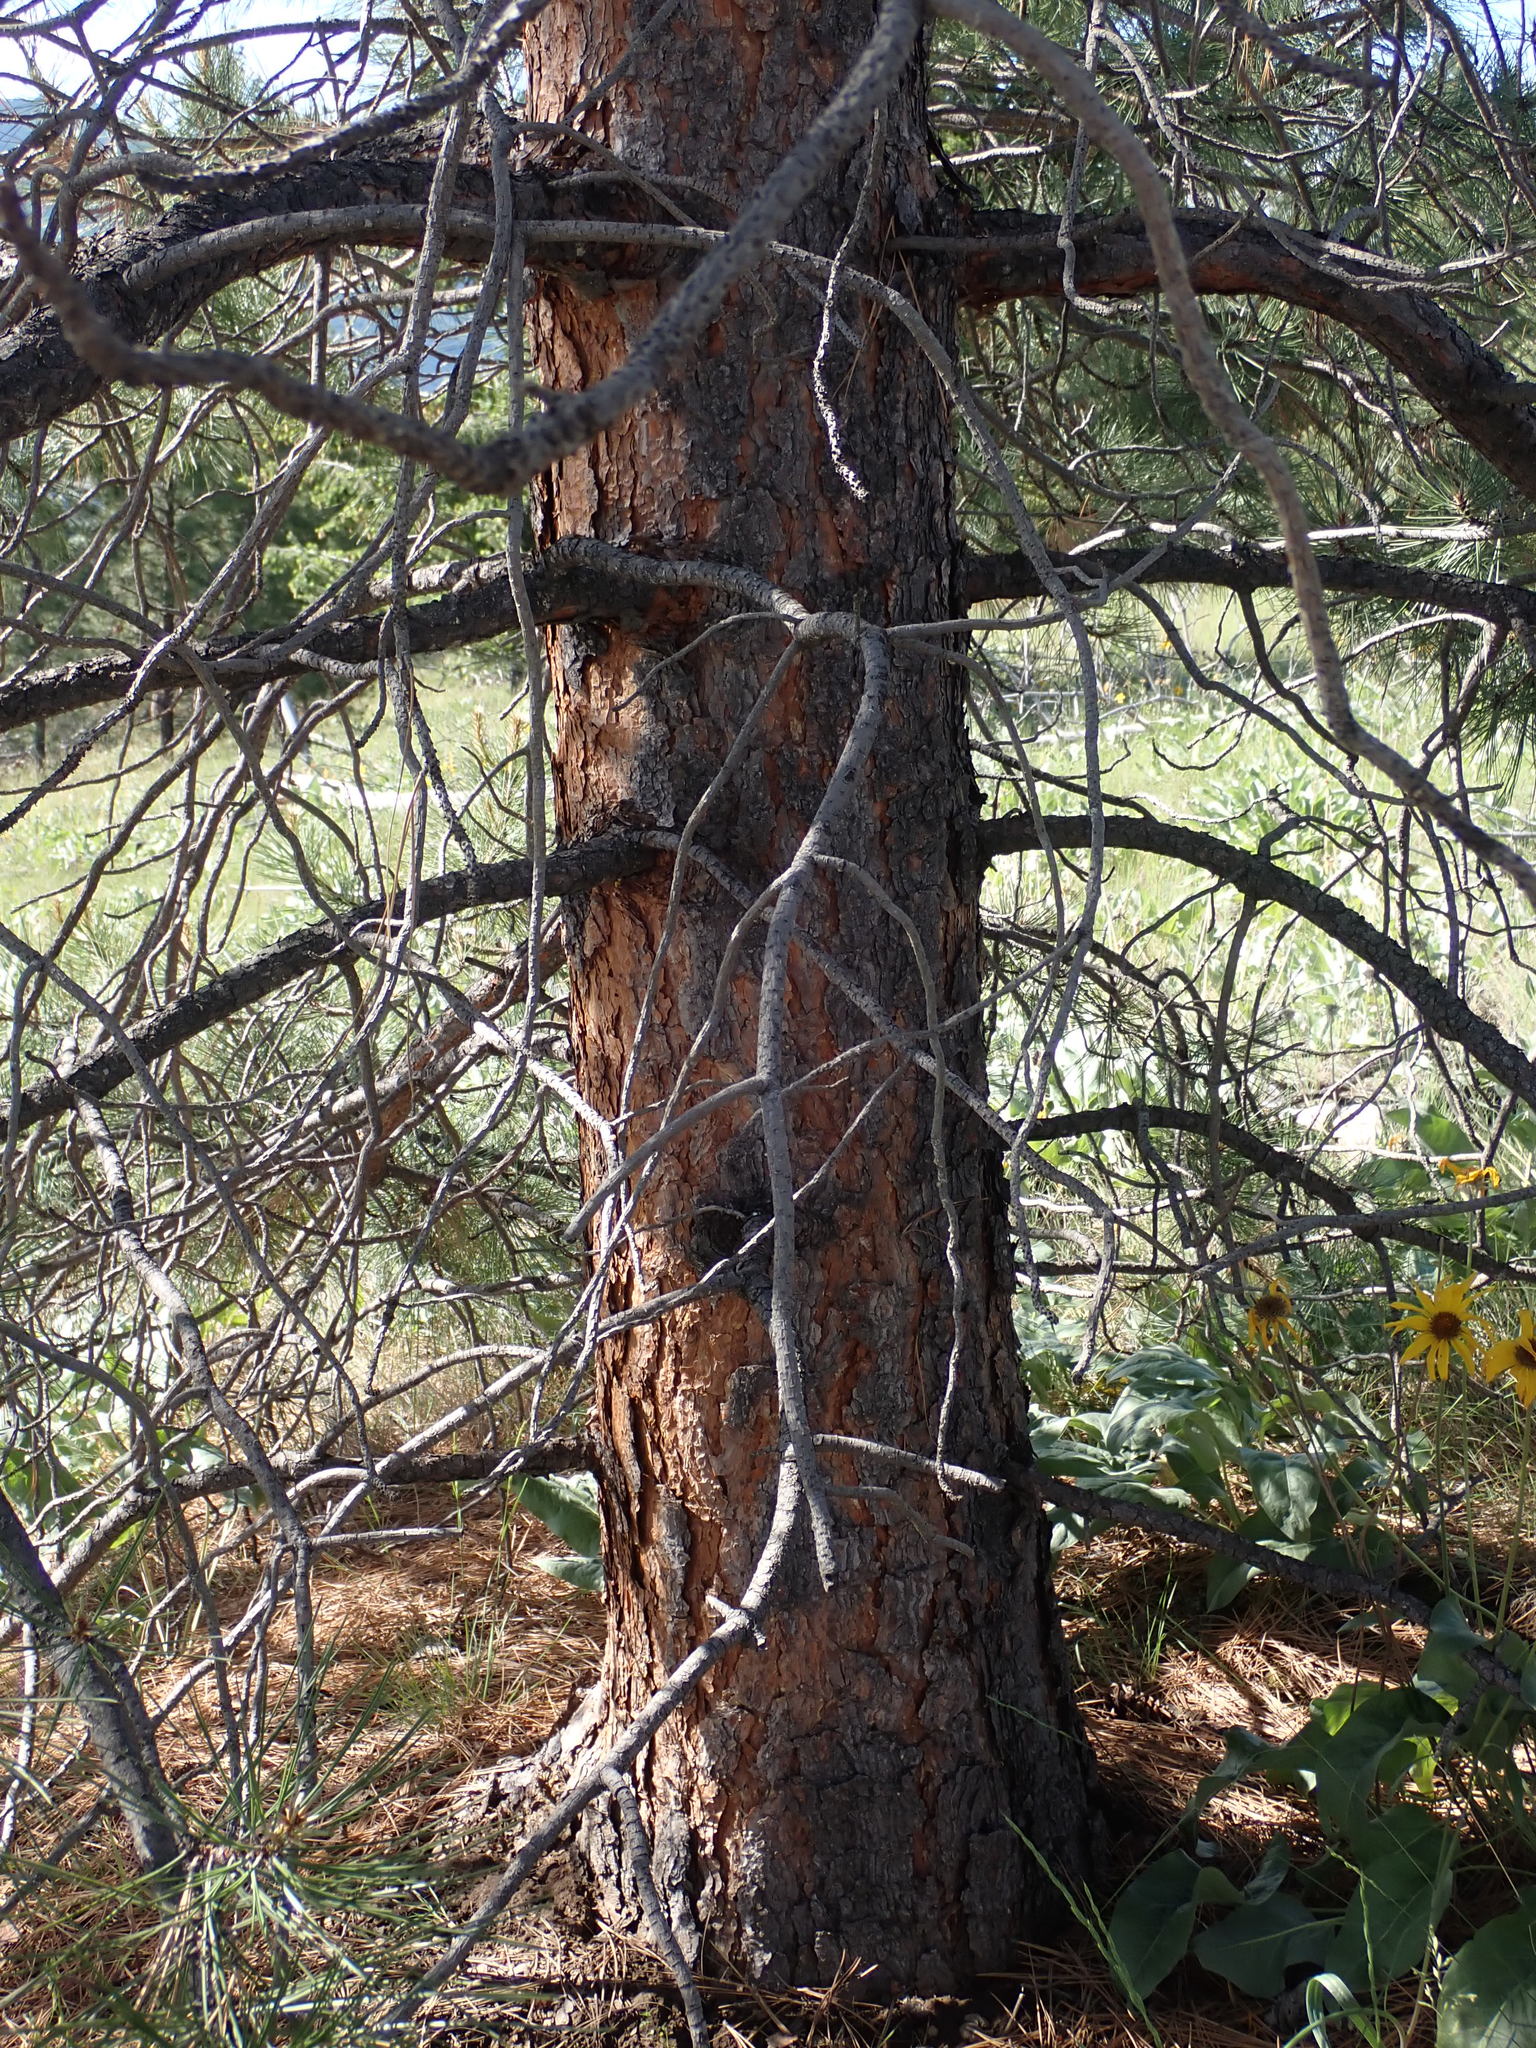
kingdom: Plantae
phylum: Tracheophyta
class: Pinopsida
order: Pinales
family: Pinaceae
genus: Pinus
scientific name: Pinus contorta
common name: Lodgepole pine
